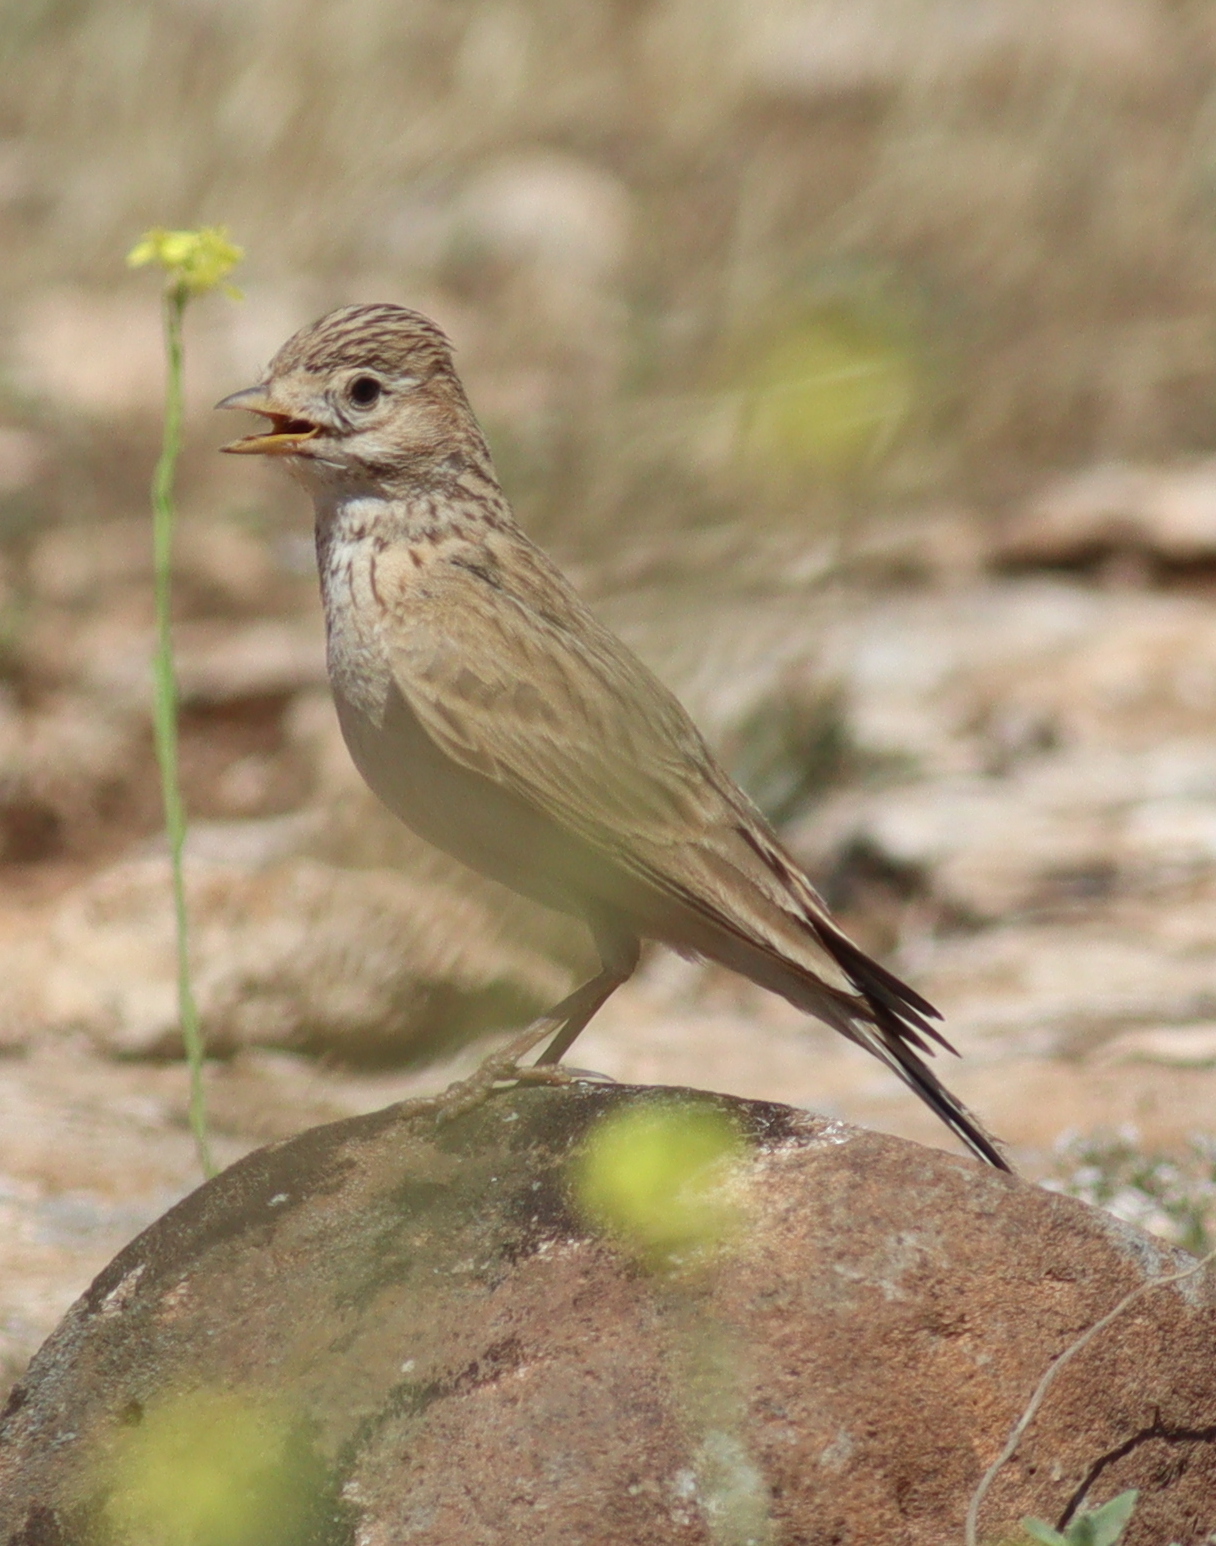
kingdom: Animalia
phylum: Chordata
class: Aves
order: Passeriformes
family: Alaudidae
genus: Calandrella
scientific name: Calandrella rufescens
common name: Lesser short-toed lark
